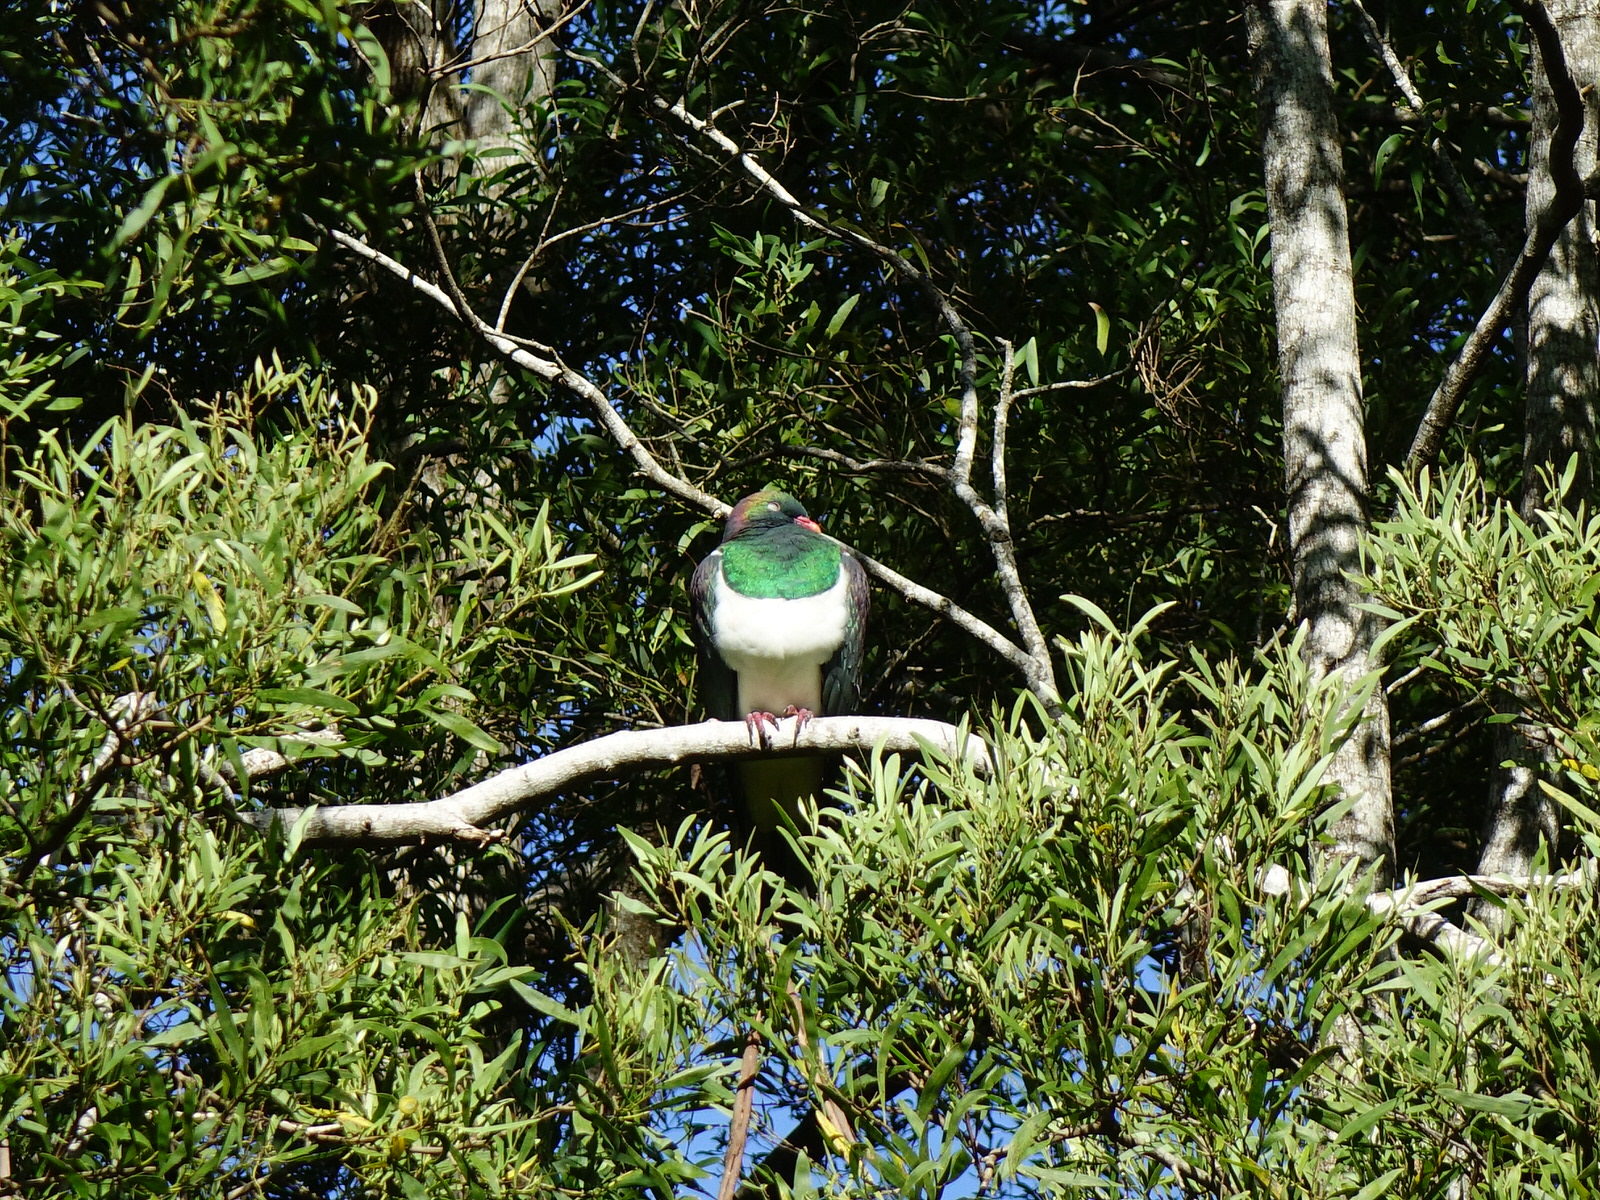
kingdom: Animalia
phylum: Chordata
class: Aves
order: Columbiformes
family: Columbidae
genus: Hemiphaga
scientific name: Hemiphaga novaeseelandiae
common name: New zealand pigeon
